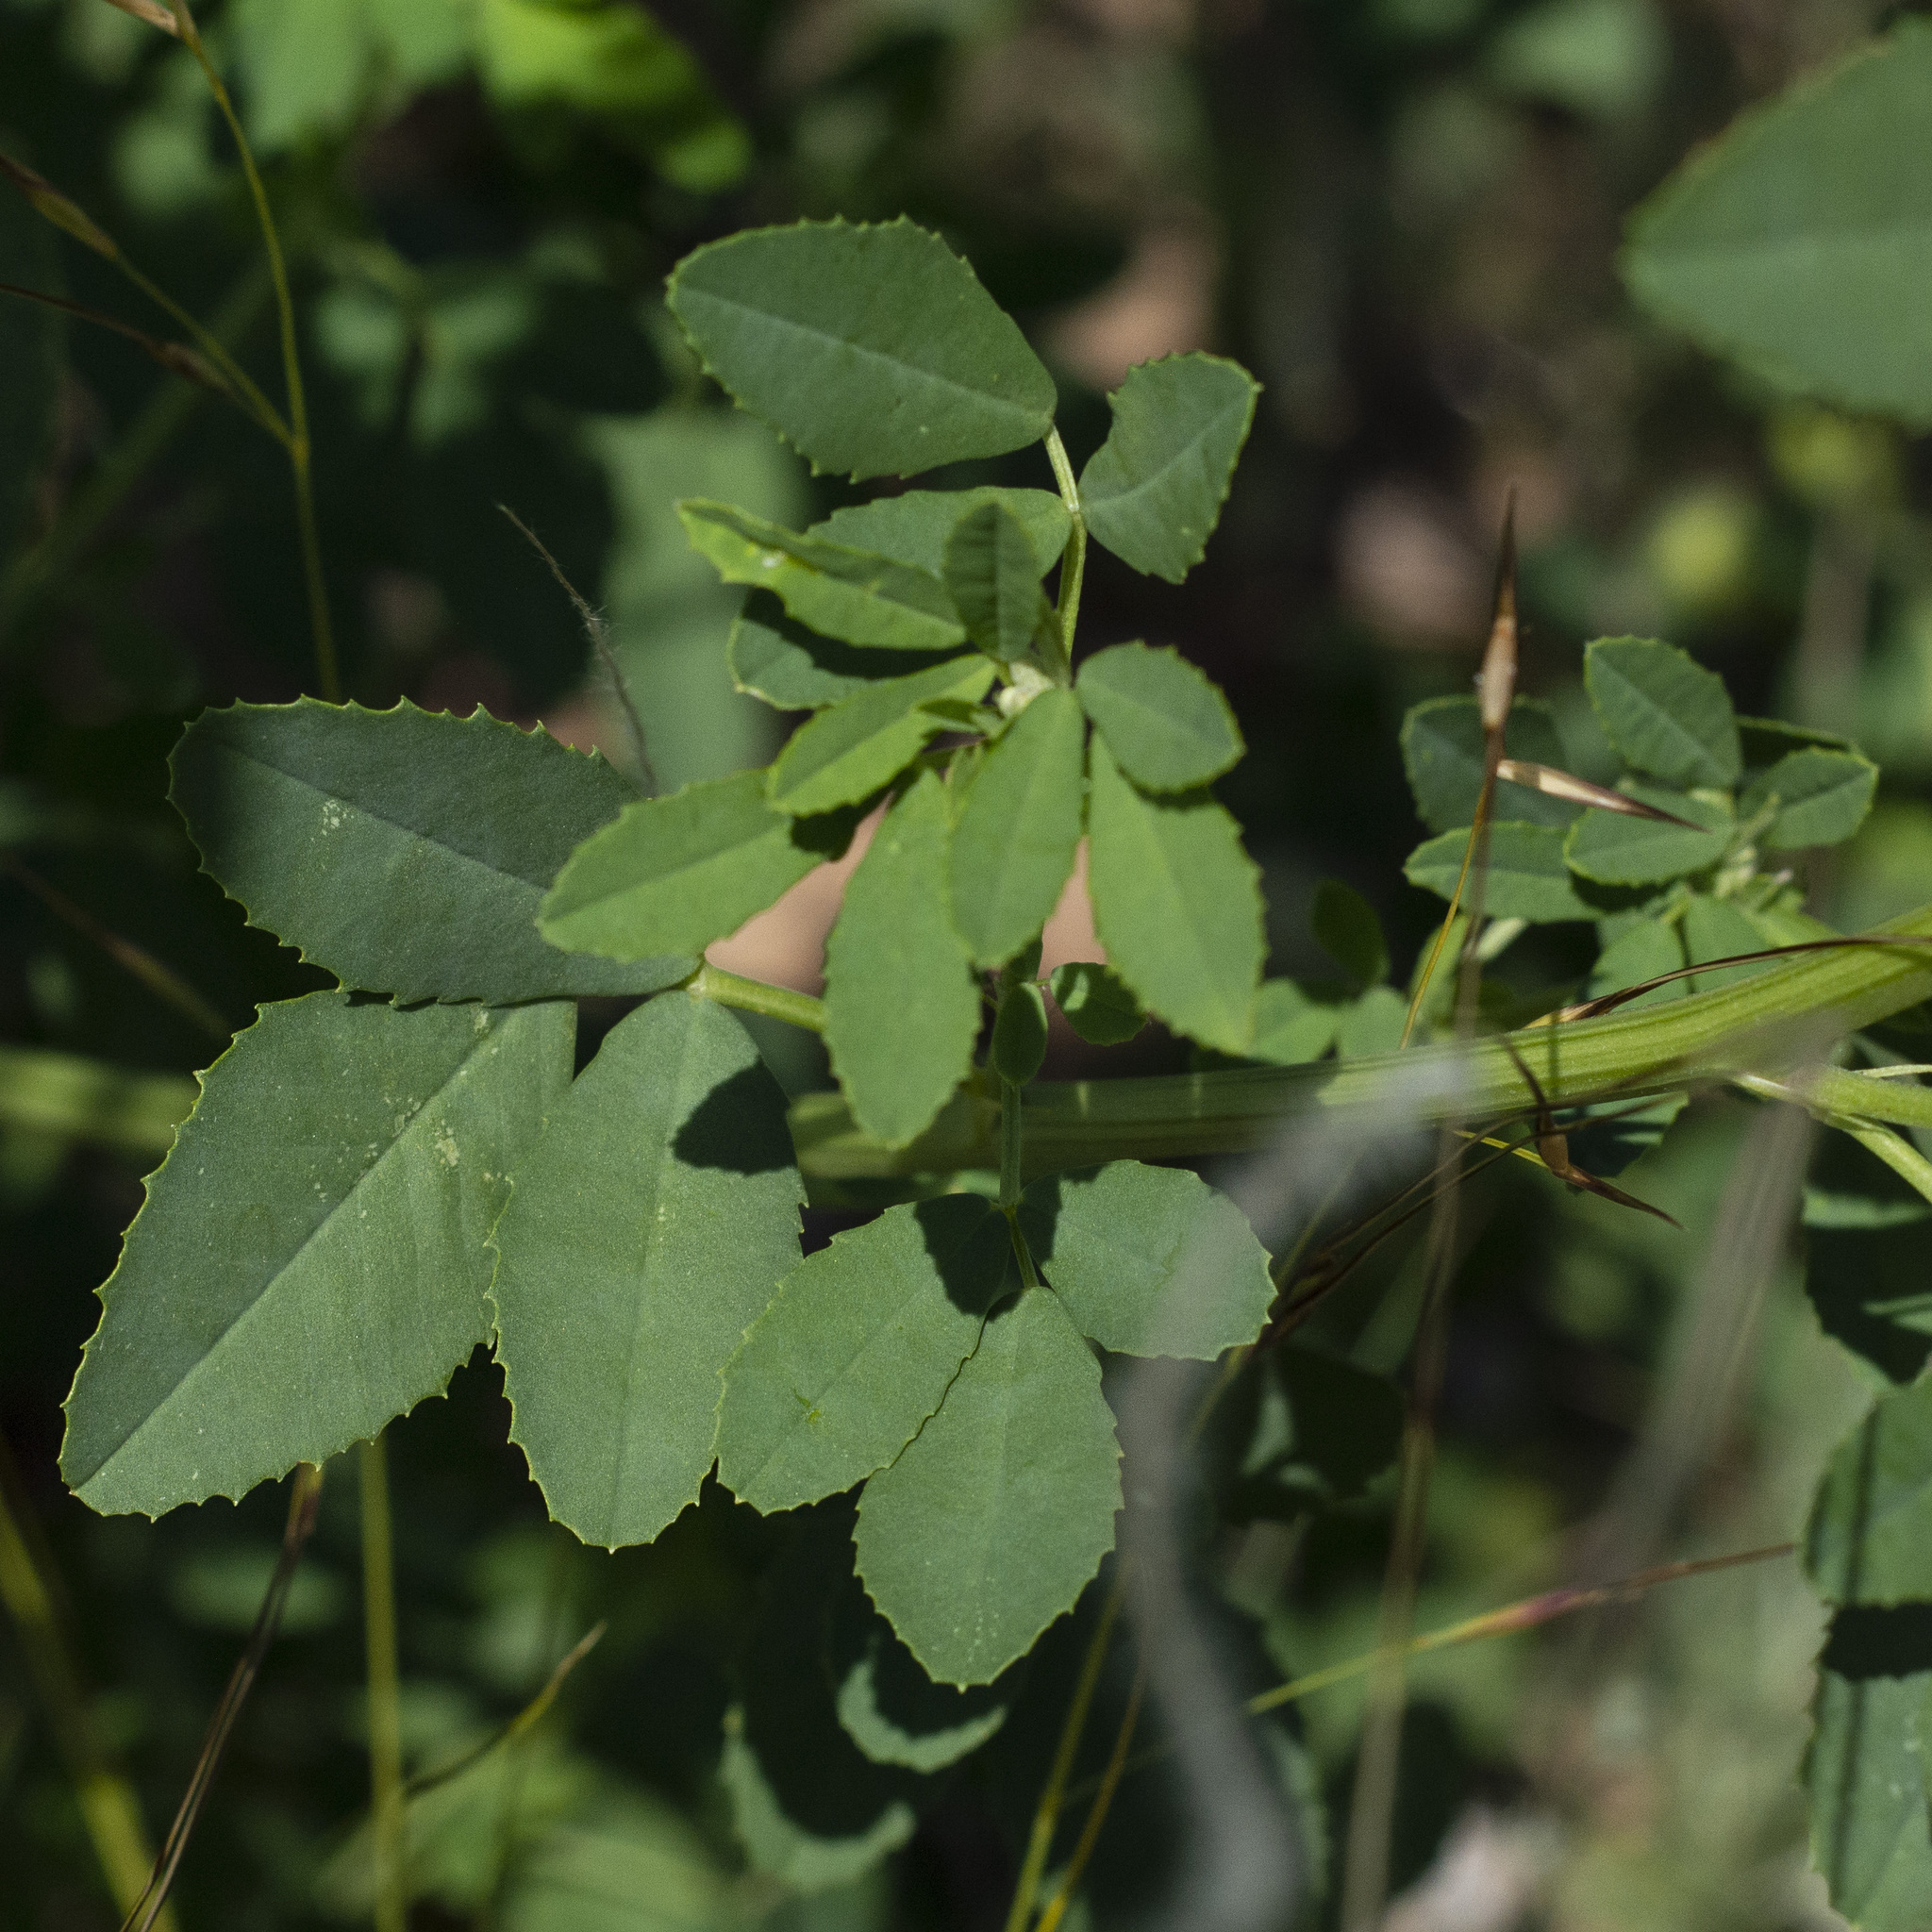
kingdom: Plantae
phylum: Tracheophyta
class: Magnoliopsida
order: Fabales
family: Fabaceae
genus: Melilotus
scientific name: Melilotus officinalis
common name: Sweetclover
